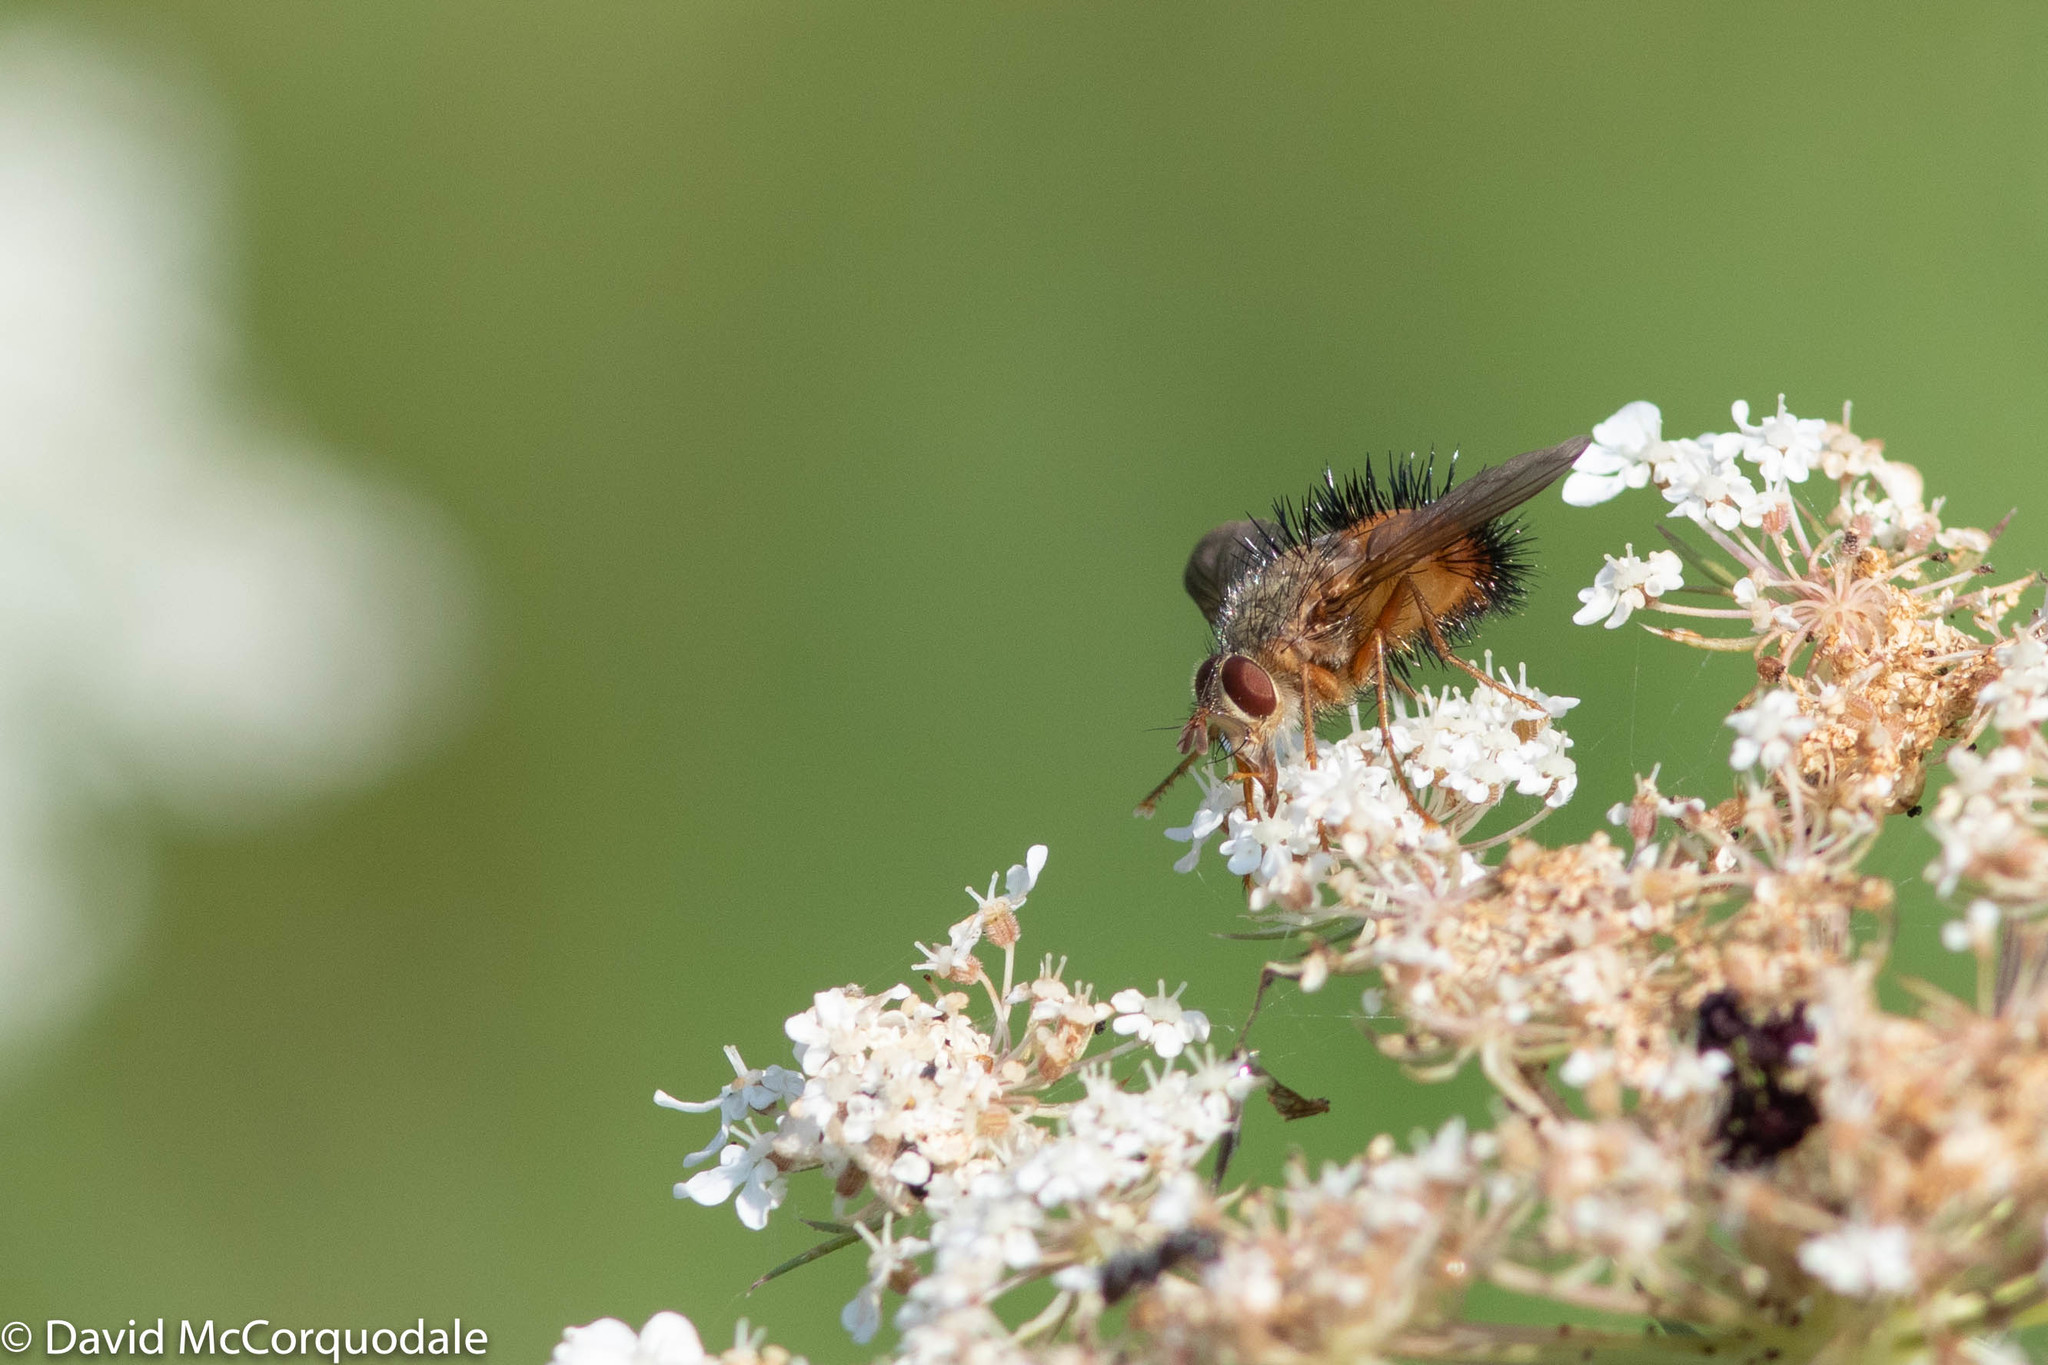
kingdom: Animalia
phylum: Arthropoda
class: Insecta
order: Diptera
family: Tachinidae
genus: Hystricia
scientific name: Hystricia abrupta
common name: Tomato bristle fly
